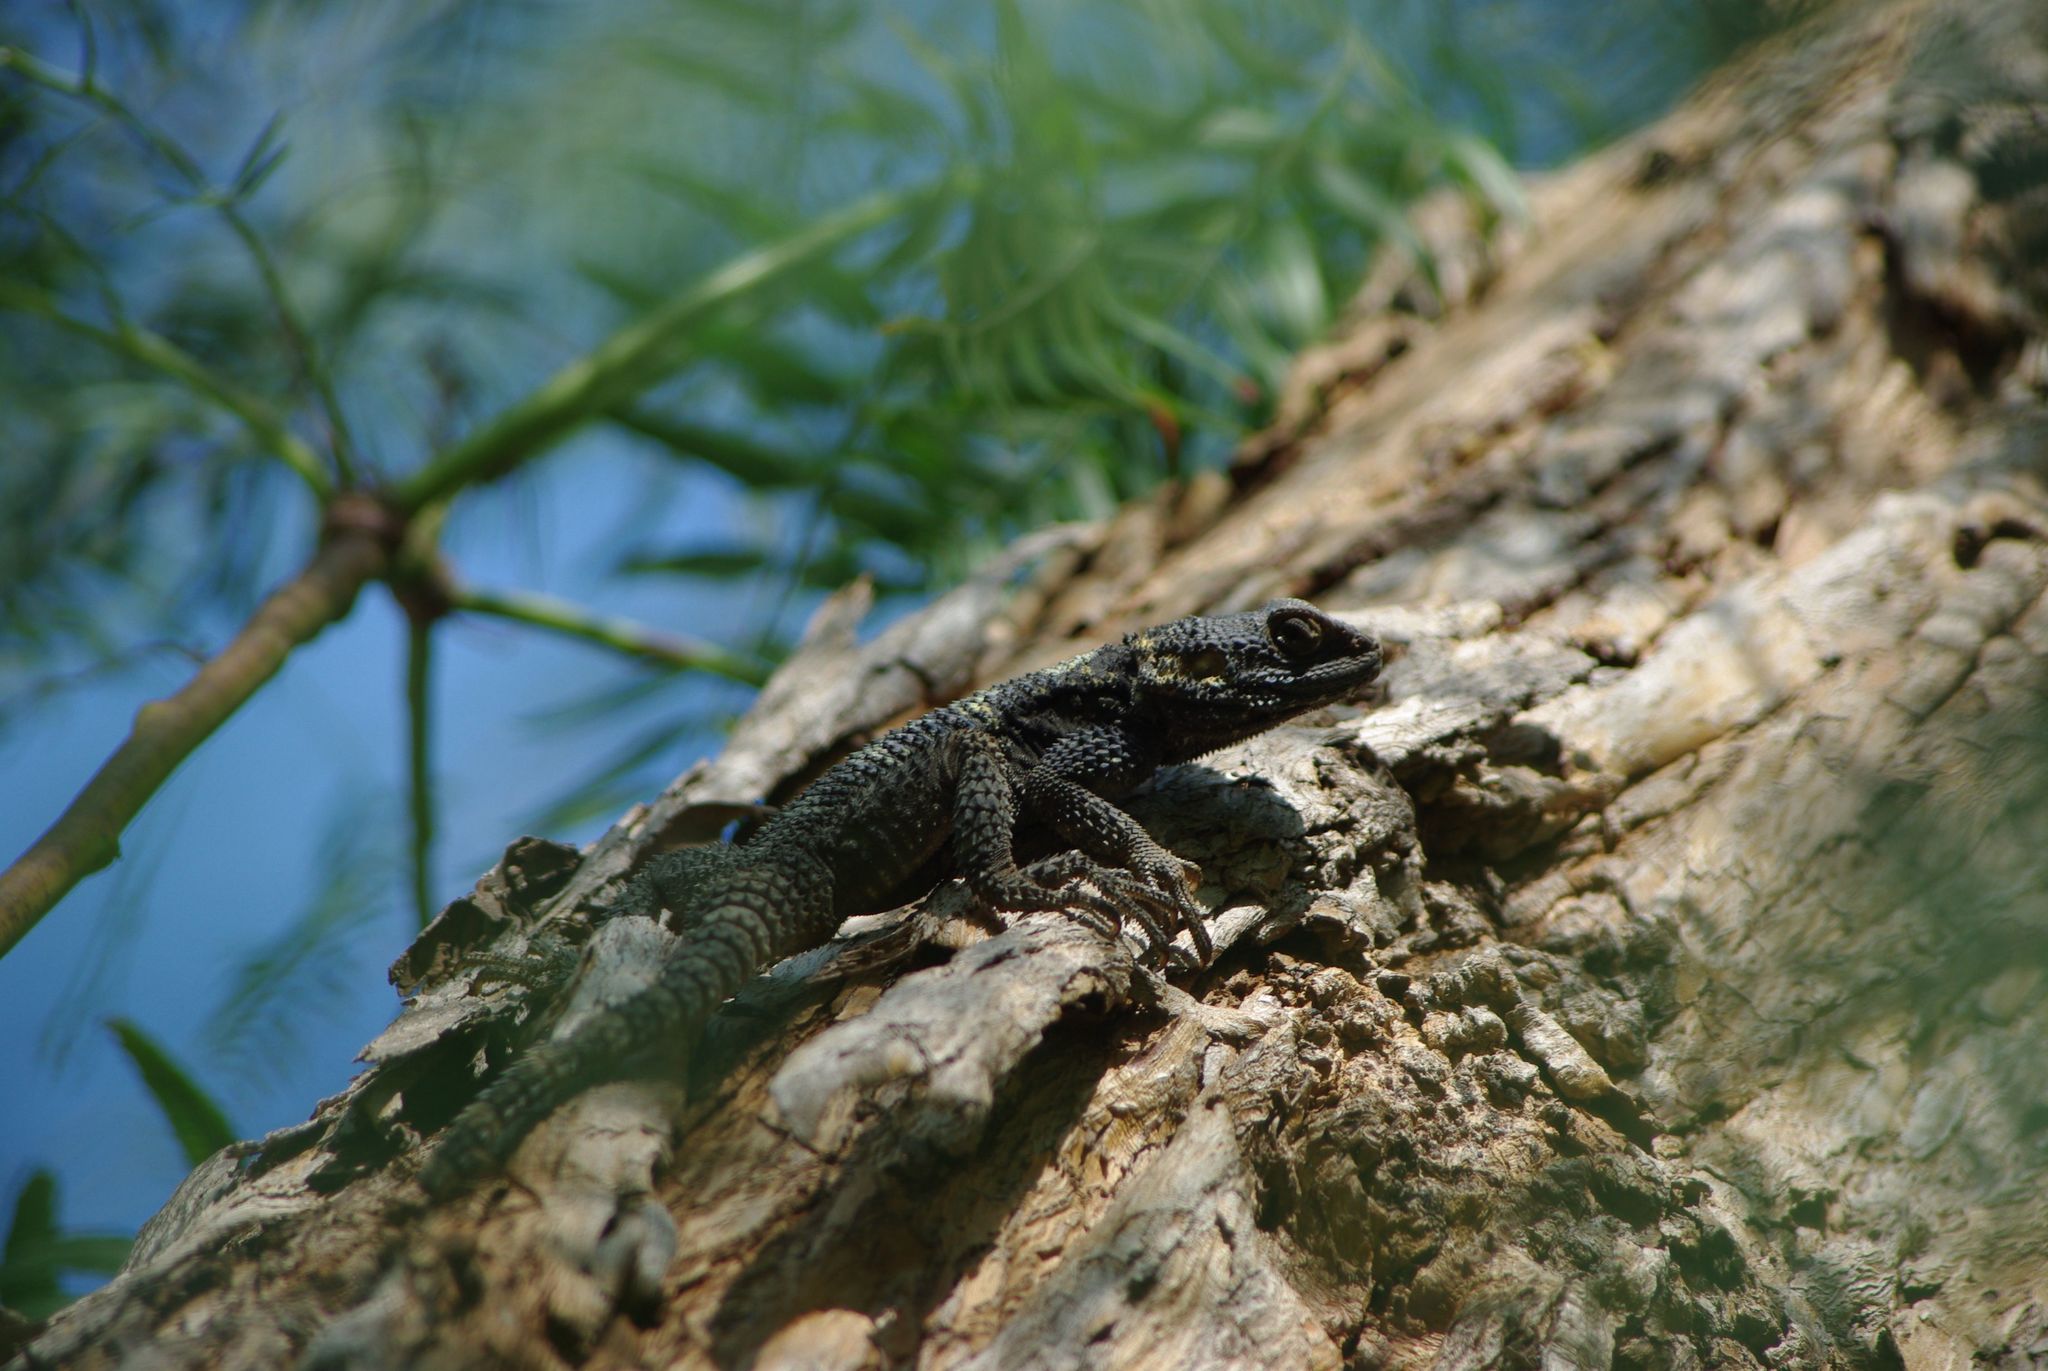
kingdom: Animalia
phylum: Chordata
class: Squamata
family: Agamidae
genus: Stellagama
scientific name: Stellagama stellio
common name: Starred agama
